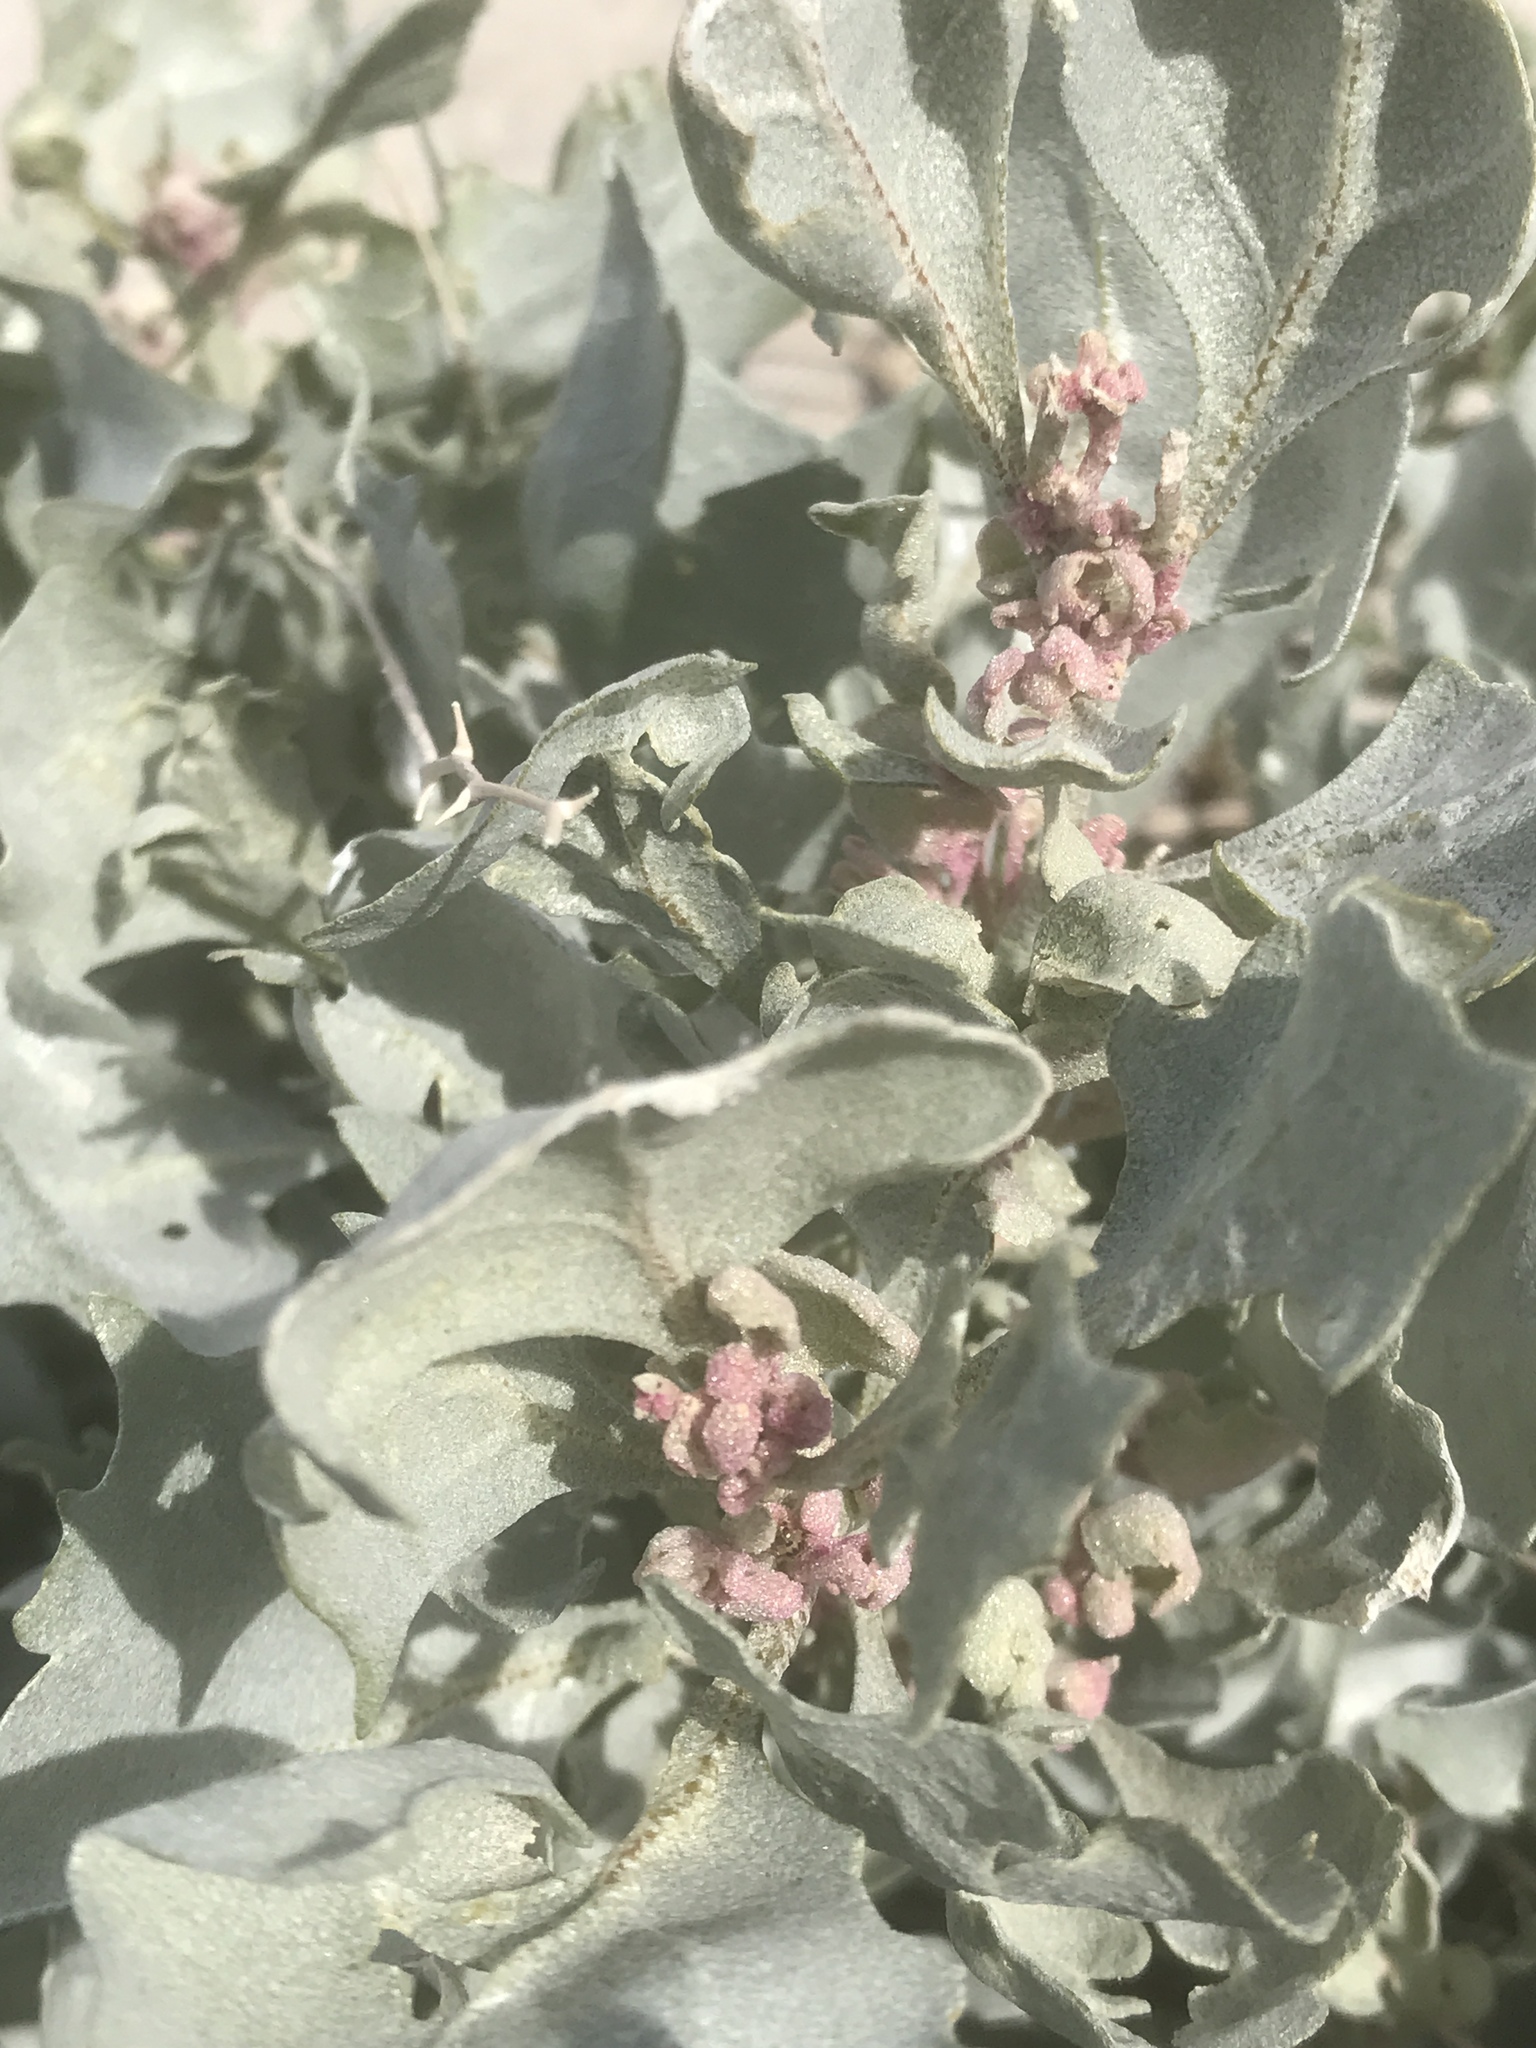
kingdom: Plantae
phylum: Tracheophyta
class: Magnoliopsida
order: Caryophyllales
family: Amaranthaceae
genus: Atriplex
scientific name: Atriplex hymenelytra
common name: Desert-holly
